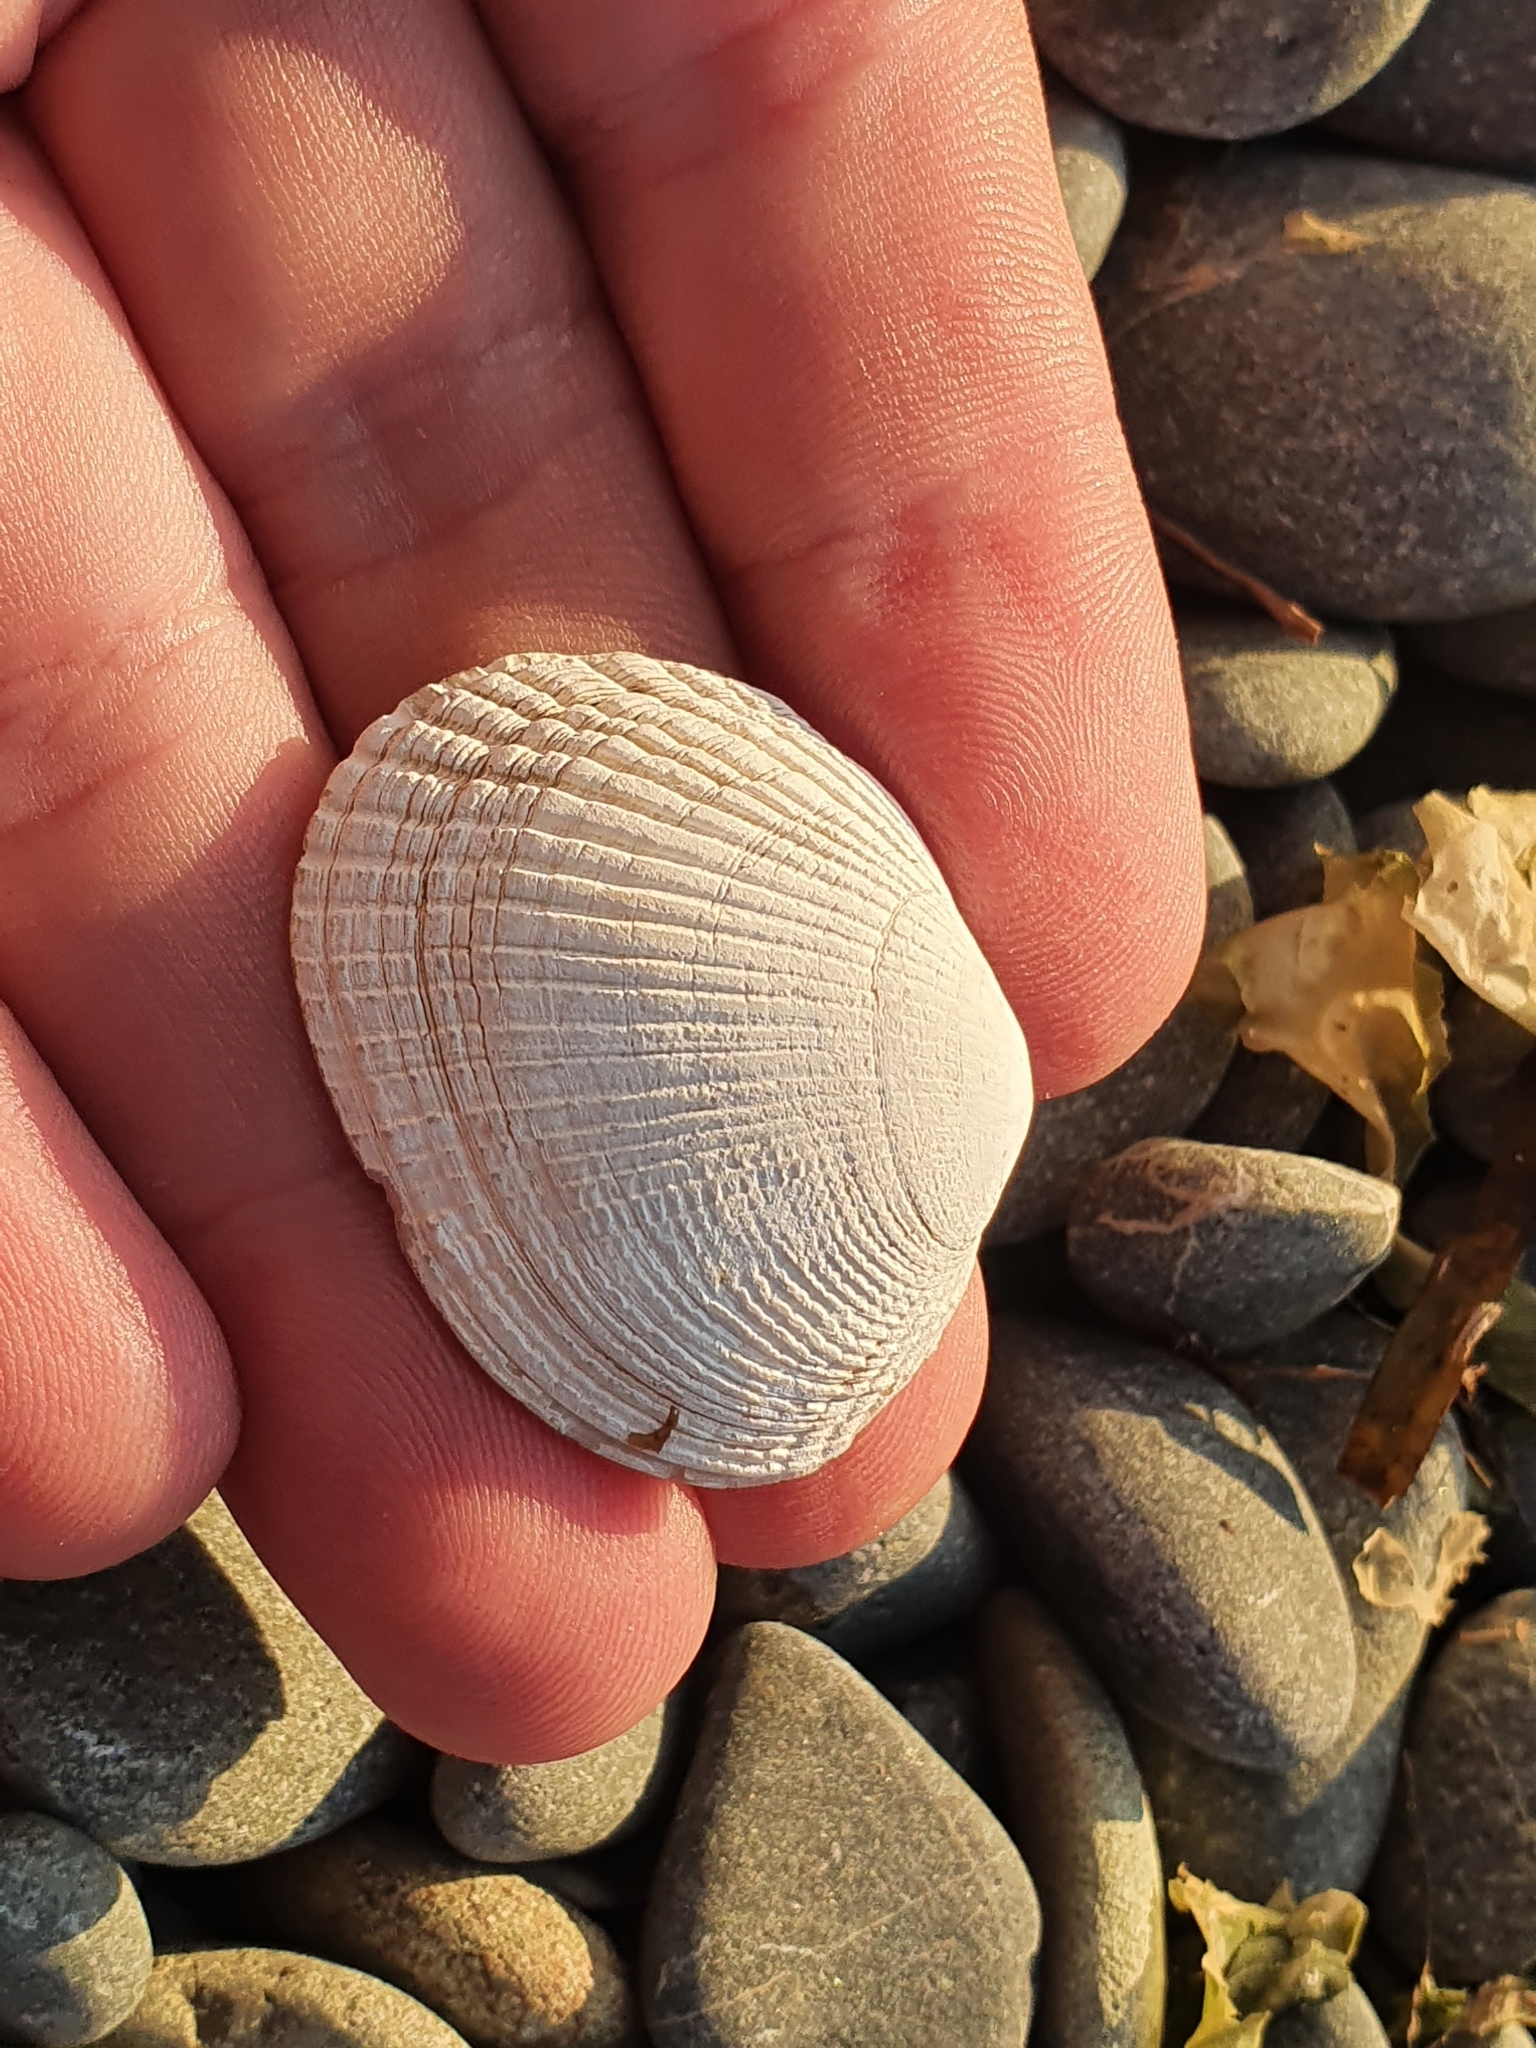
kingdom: Animalia
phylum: Mollusca
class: Bivalvia
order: Venerida
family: Veneridae
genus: Leukoma
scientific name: Leukoma crassicosta
